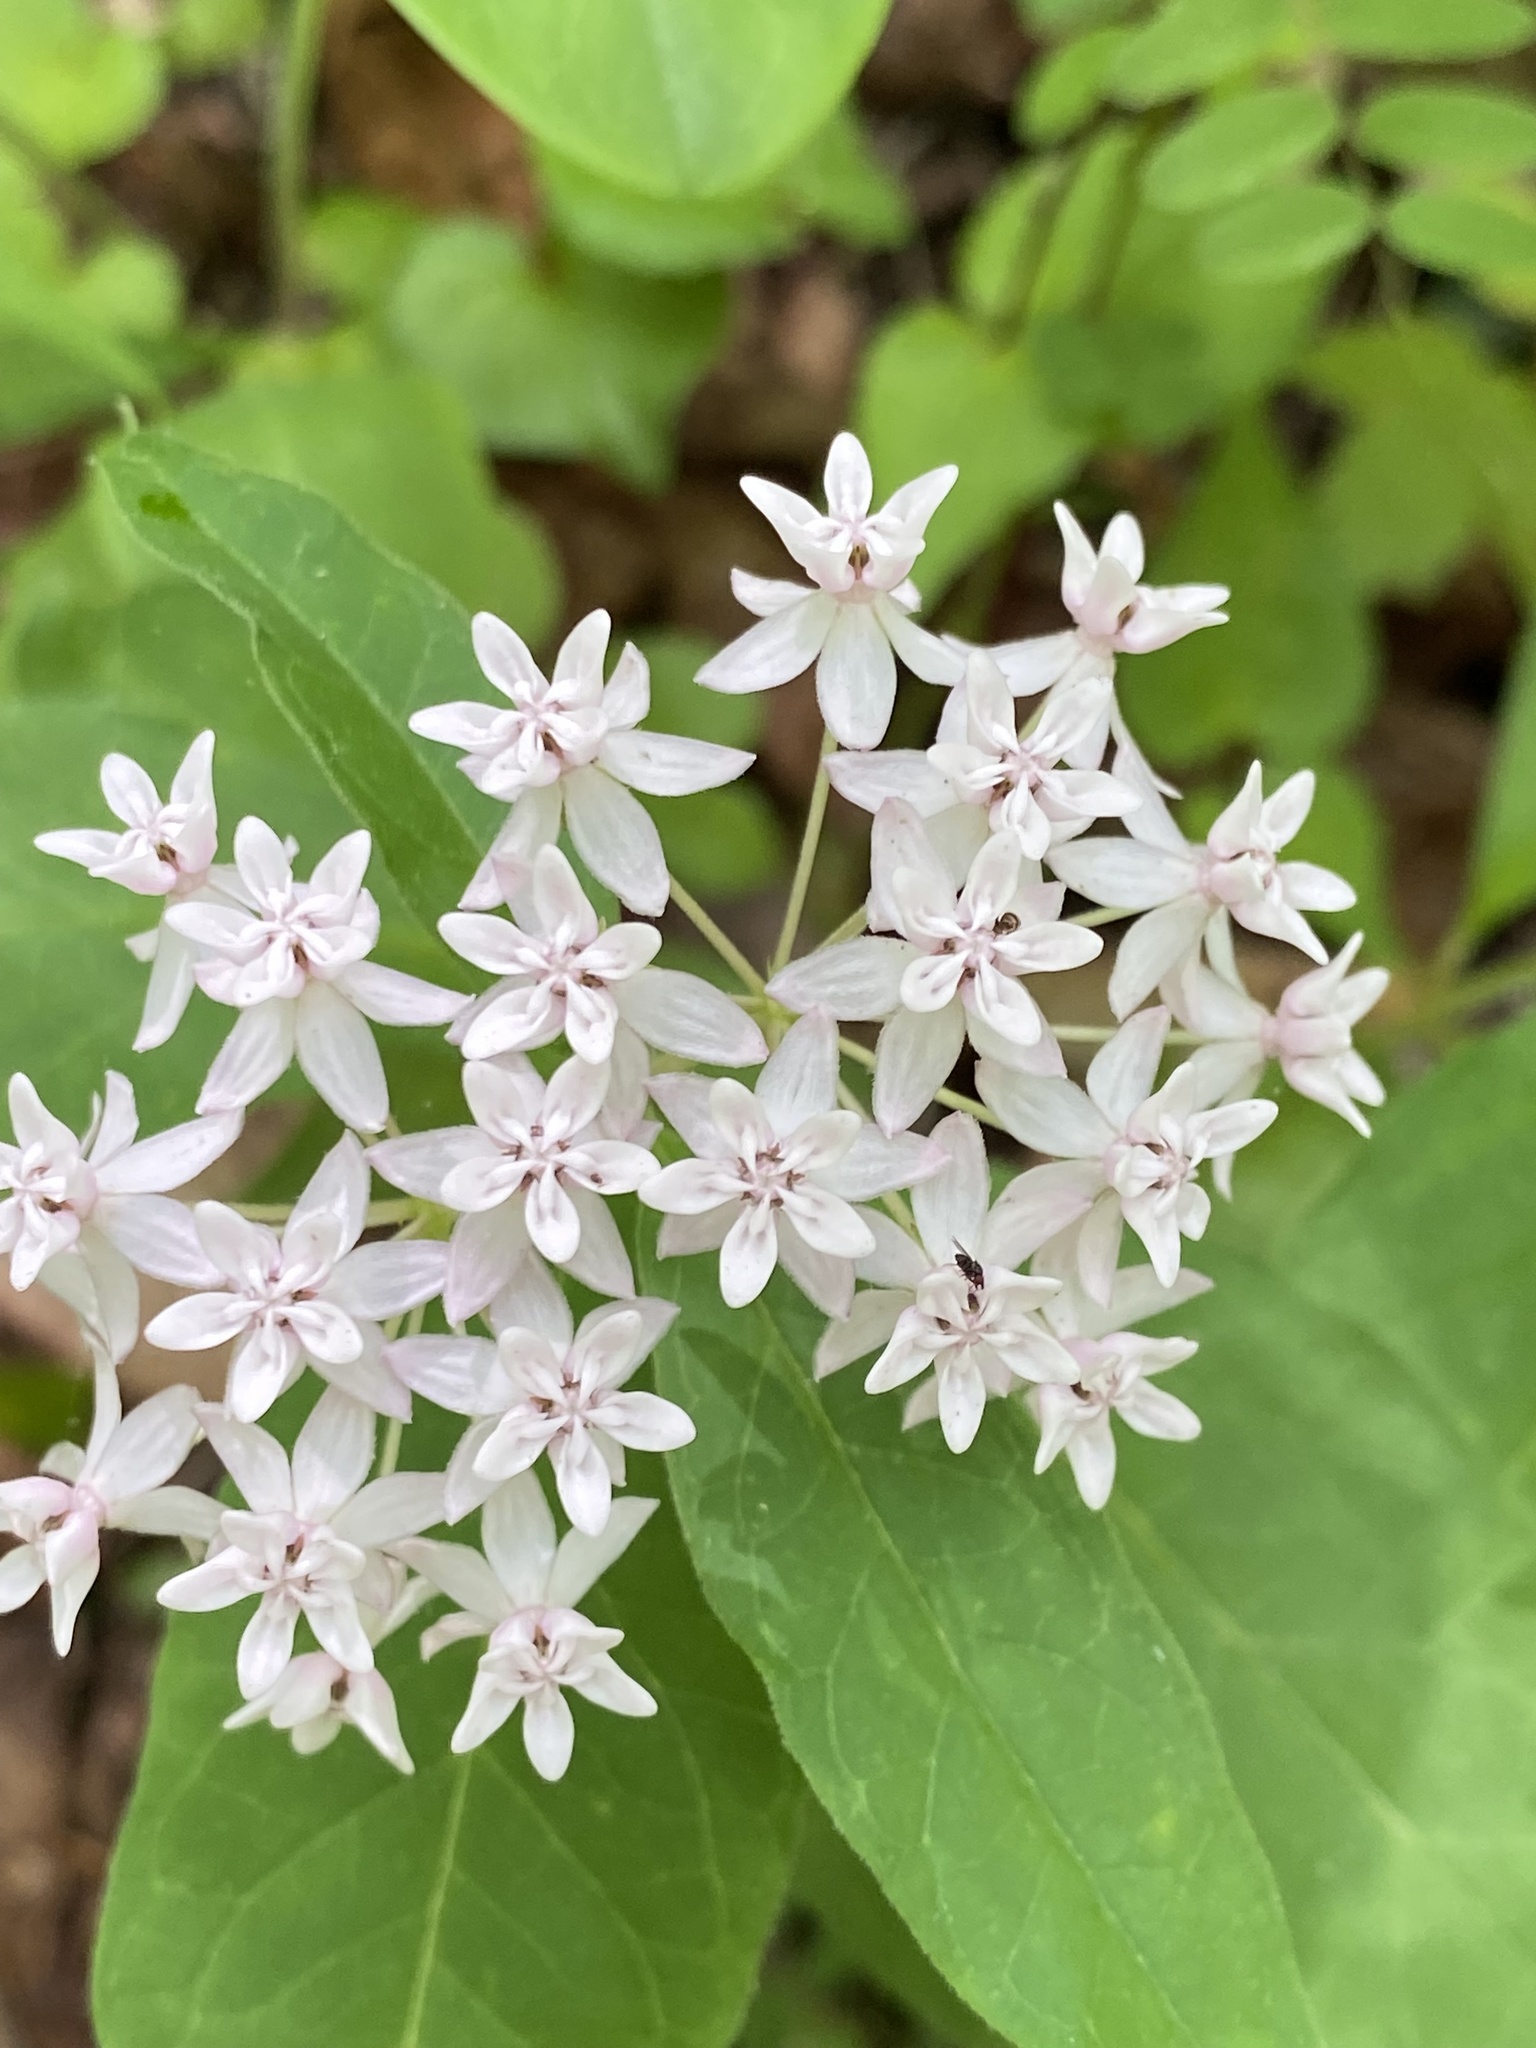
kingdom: Plantae
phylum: Tracheophyta
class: Magnoliopsida
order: Gentianales
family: Apocynaceae
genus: Asclepias
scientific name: Asclepias quadrifolia
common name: Whorled milkweed
